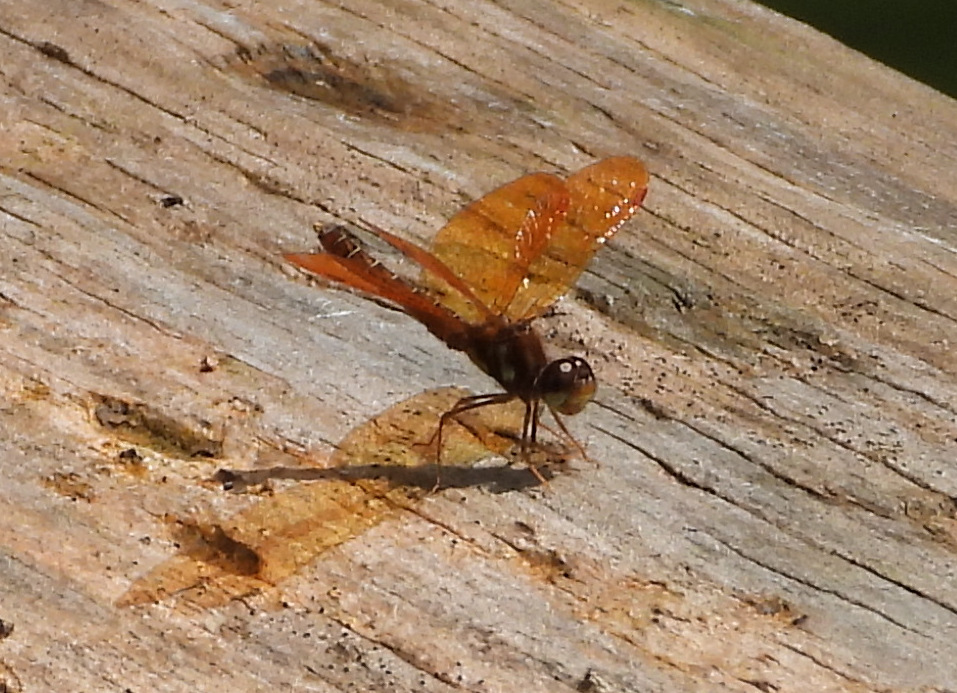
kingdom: Animalia
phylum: Arthropoda
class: Insecta
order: Odonata
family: Libellulidae
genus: Perithemis
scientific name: Perithemis tenera
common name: Eastern amberwing
